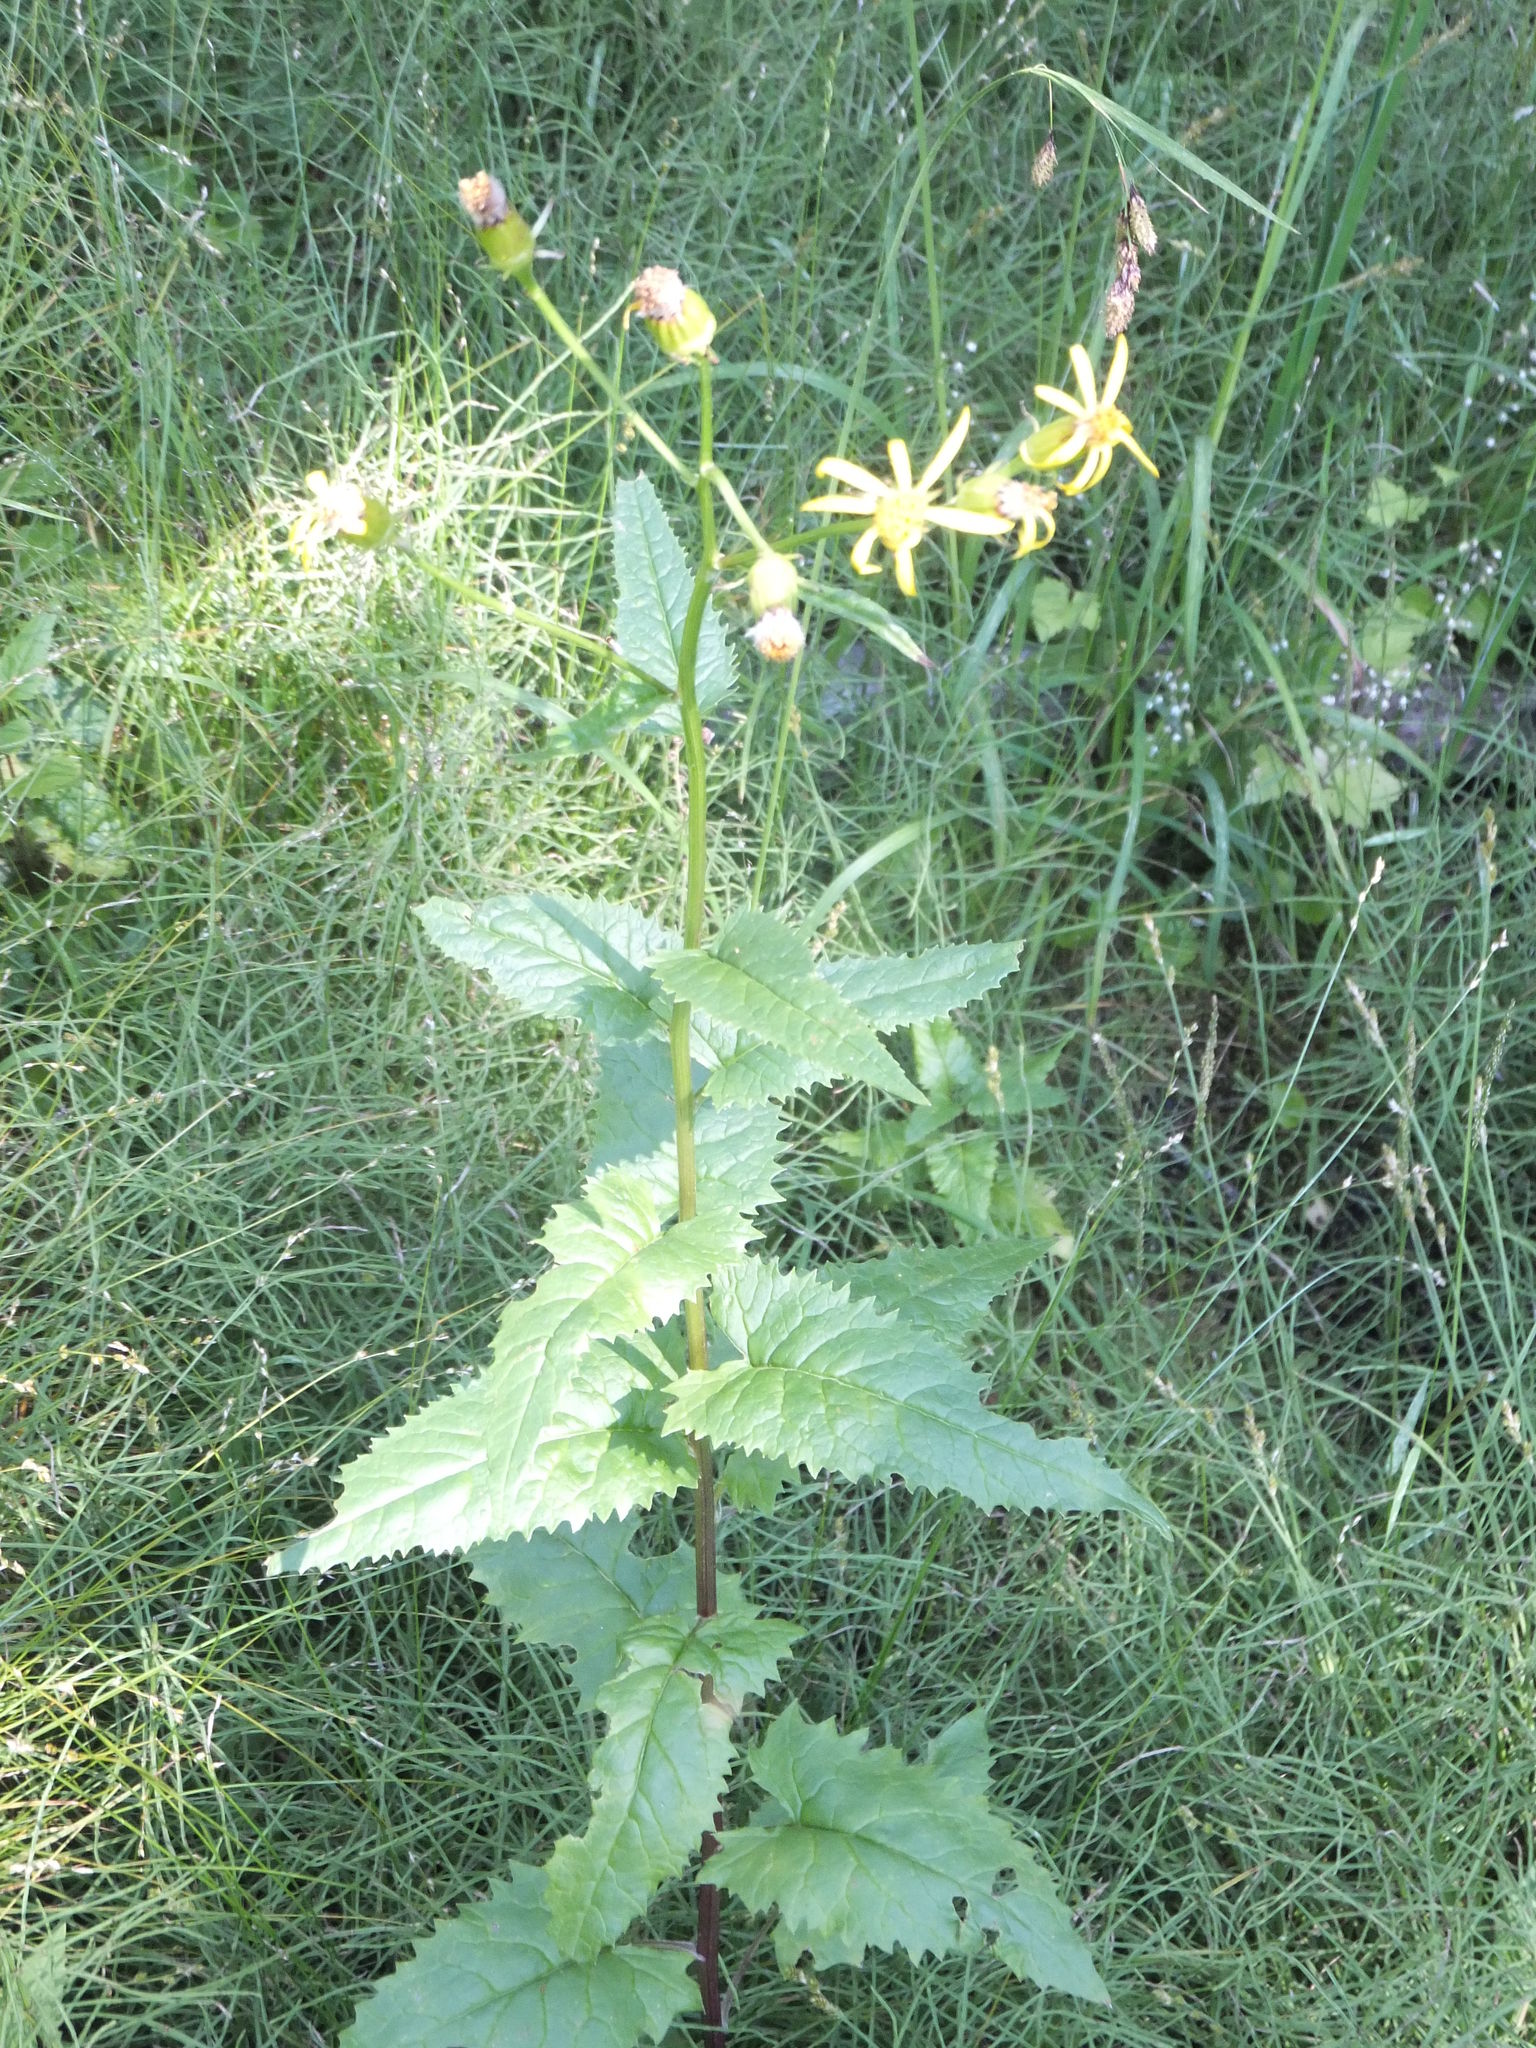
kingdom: Plantae
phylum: Tracheophyta
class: Magnoliopsida
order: Asterales
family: Asteraceae
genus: Senecio
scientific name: Senecio triangularis
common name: Arrowleaf butterweed
